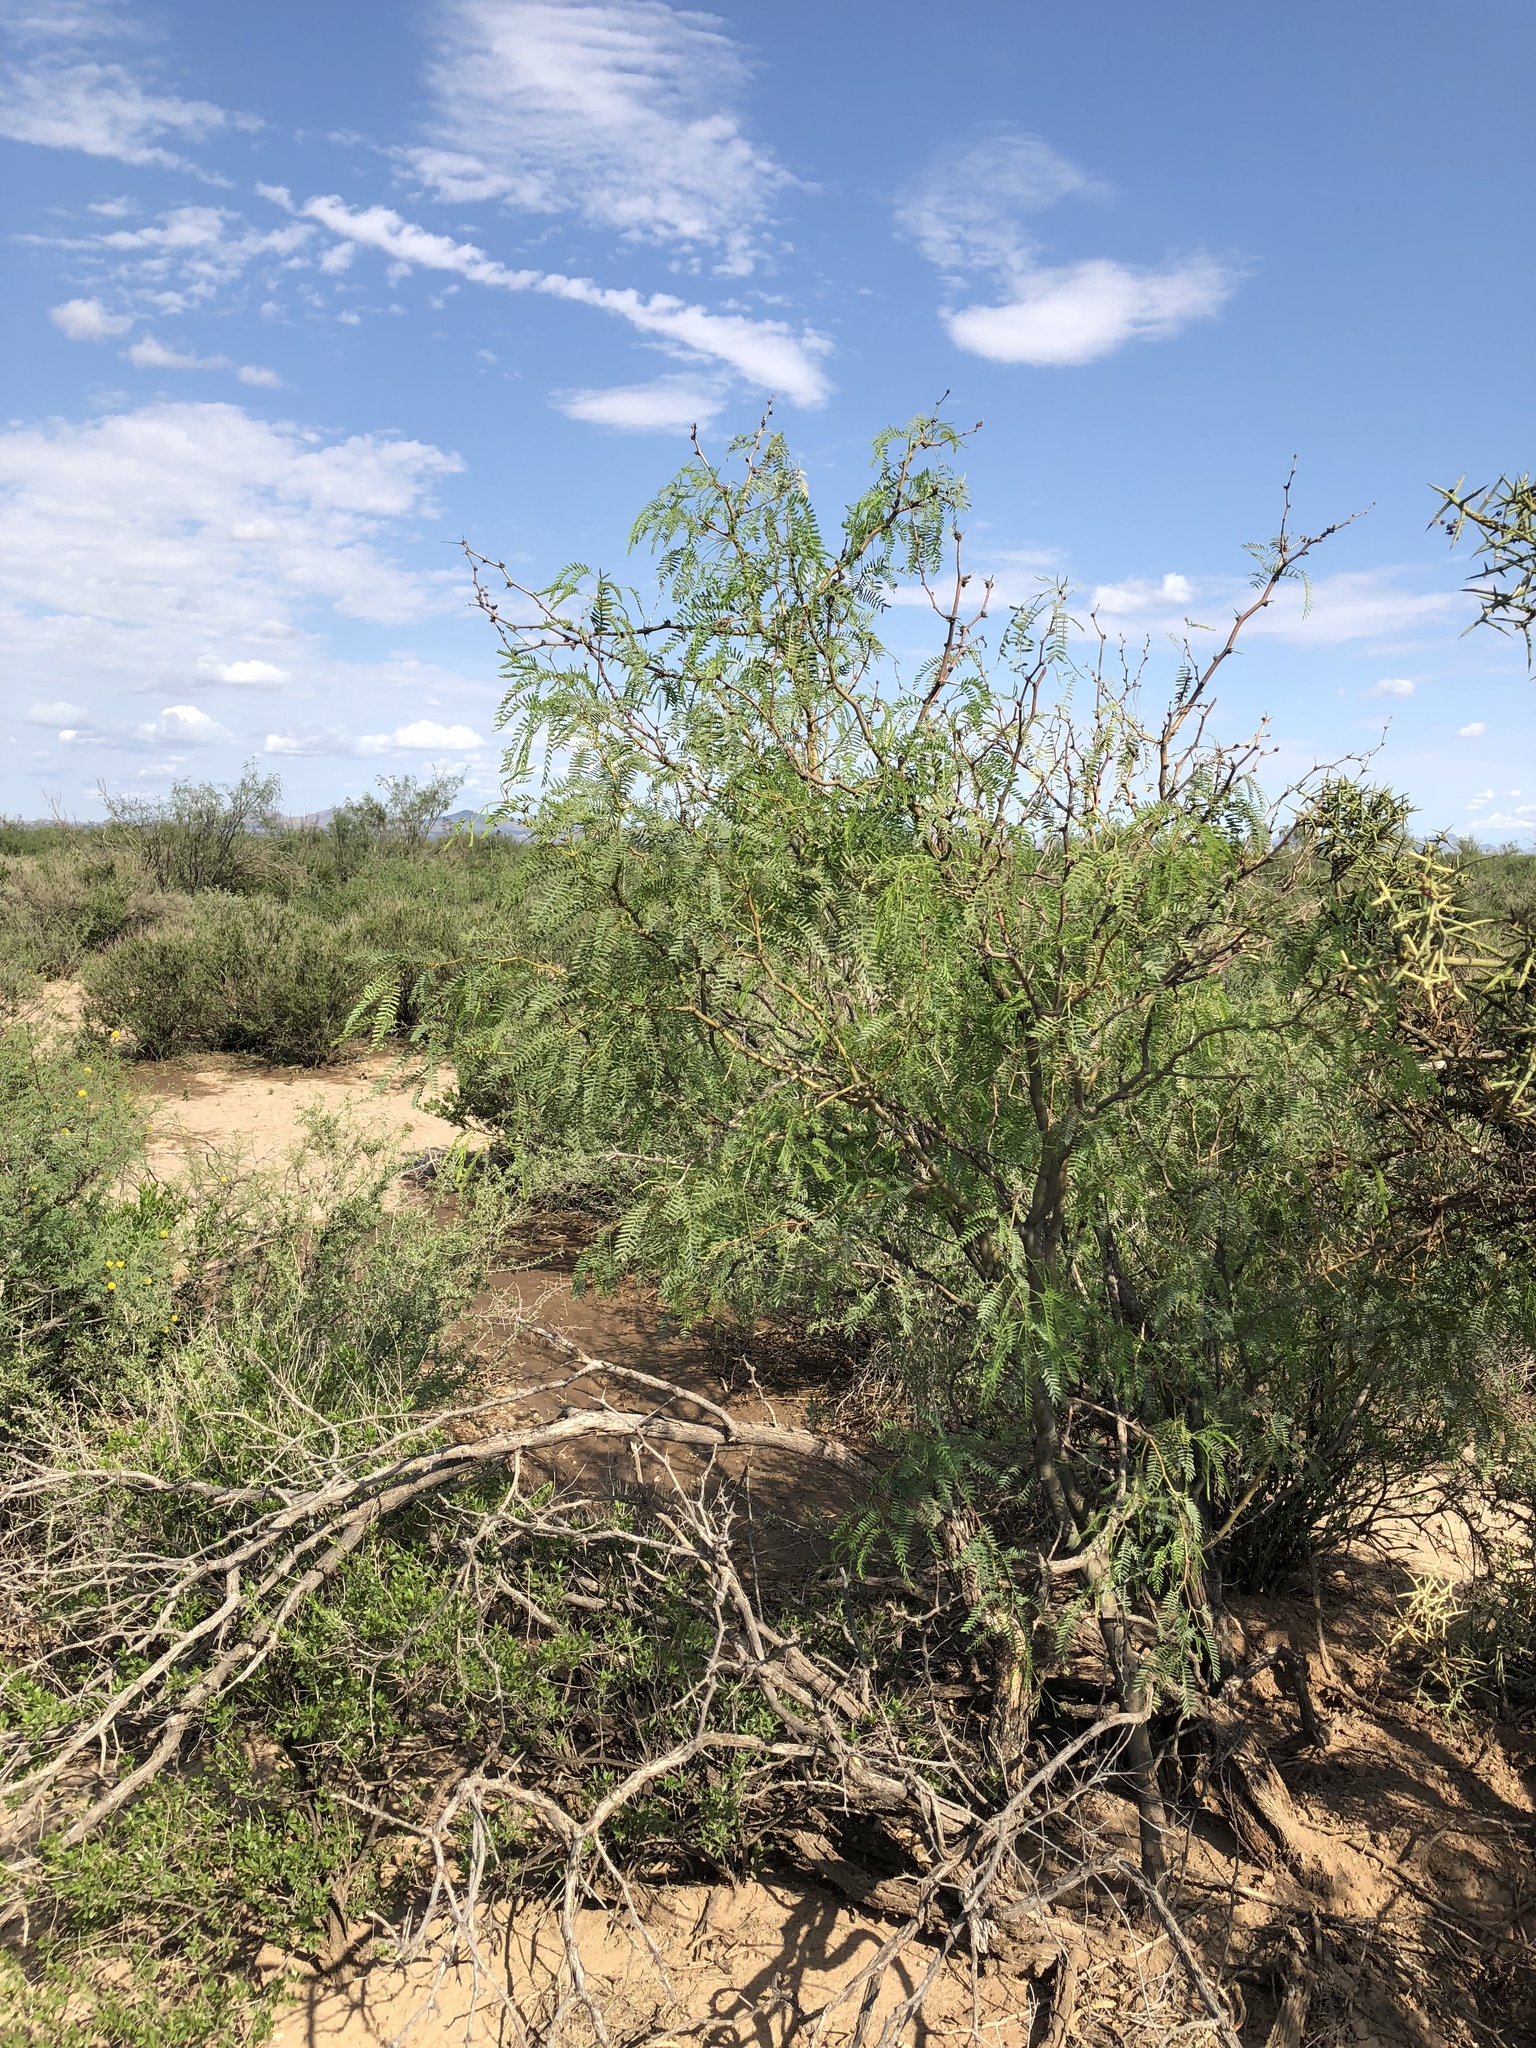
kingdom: Plantae
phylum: Tracheophyta
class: Magnoliopsida
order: Fabales
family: Fabaceae
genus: Prosopis
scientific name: Prosopis glandulosa
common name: Honey mesquite
